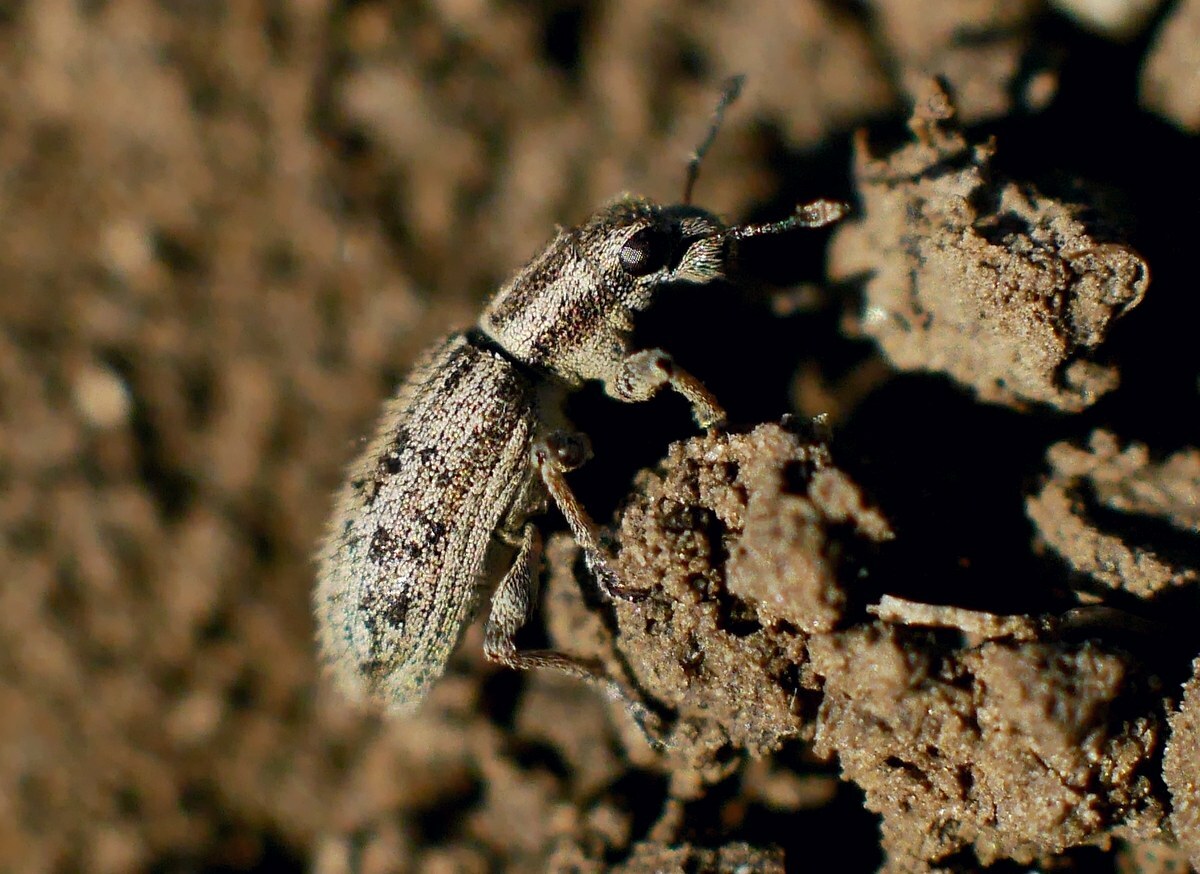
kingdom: Animalia
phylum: Arthropoda
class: Insecta
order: Coleoptera
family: Curculionidae
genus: Sitona
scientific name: Sitona macularius
